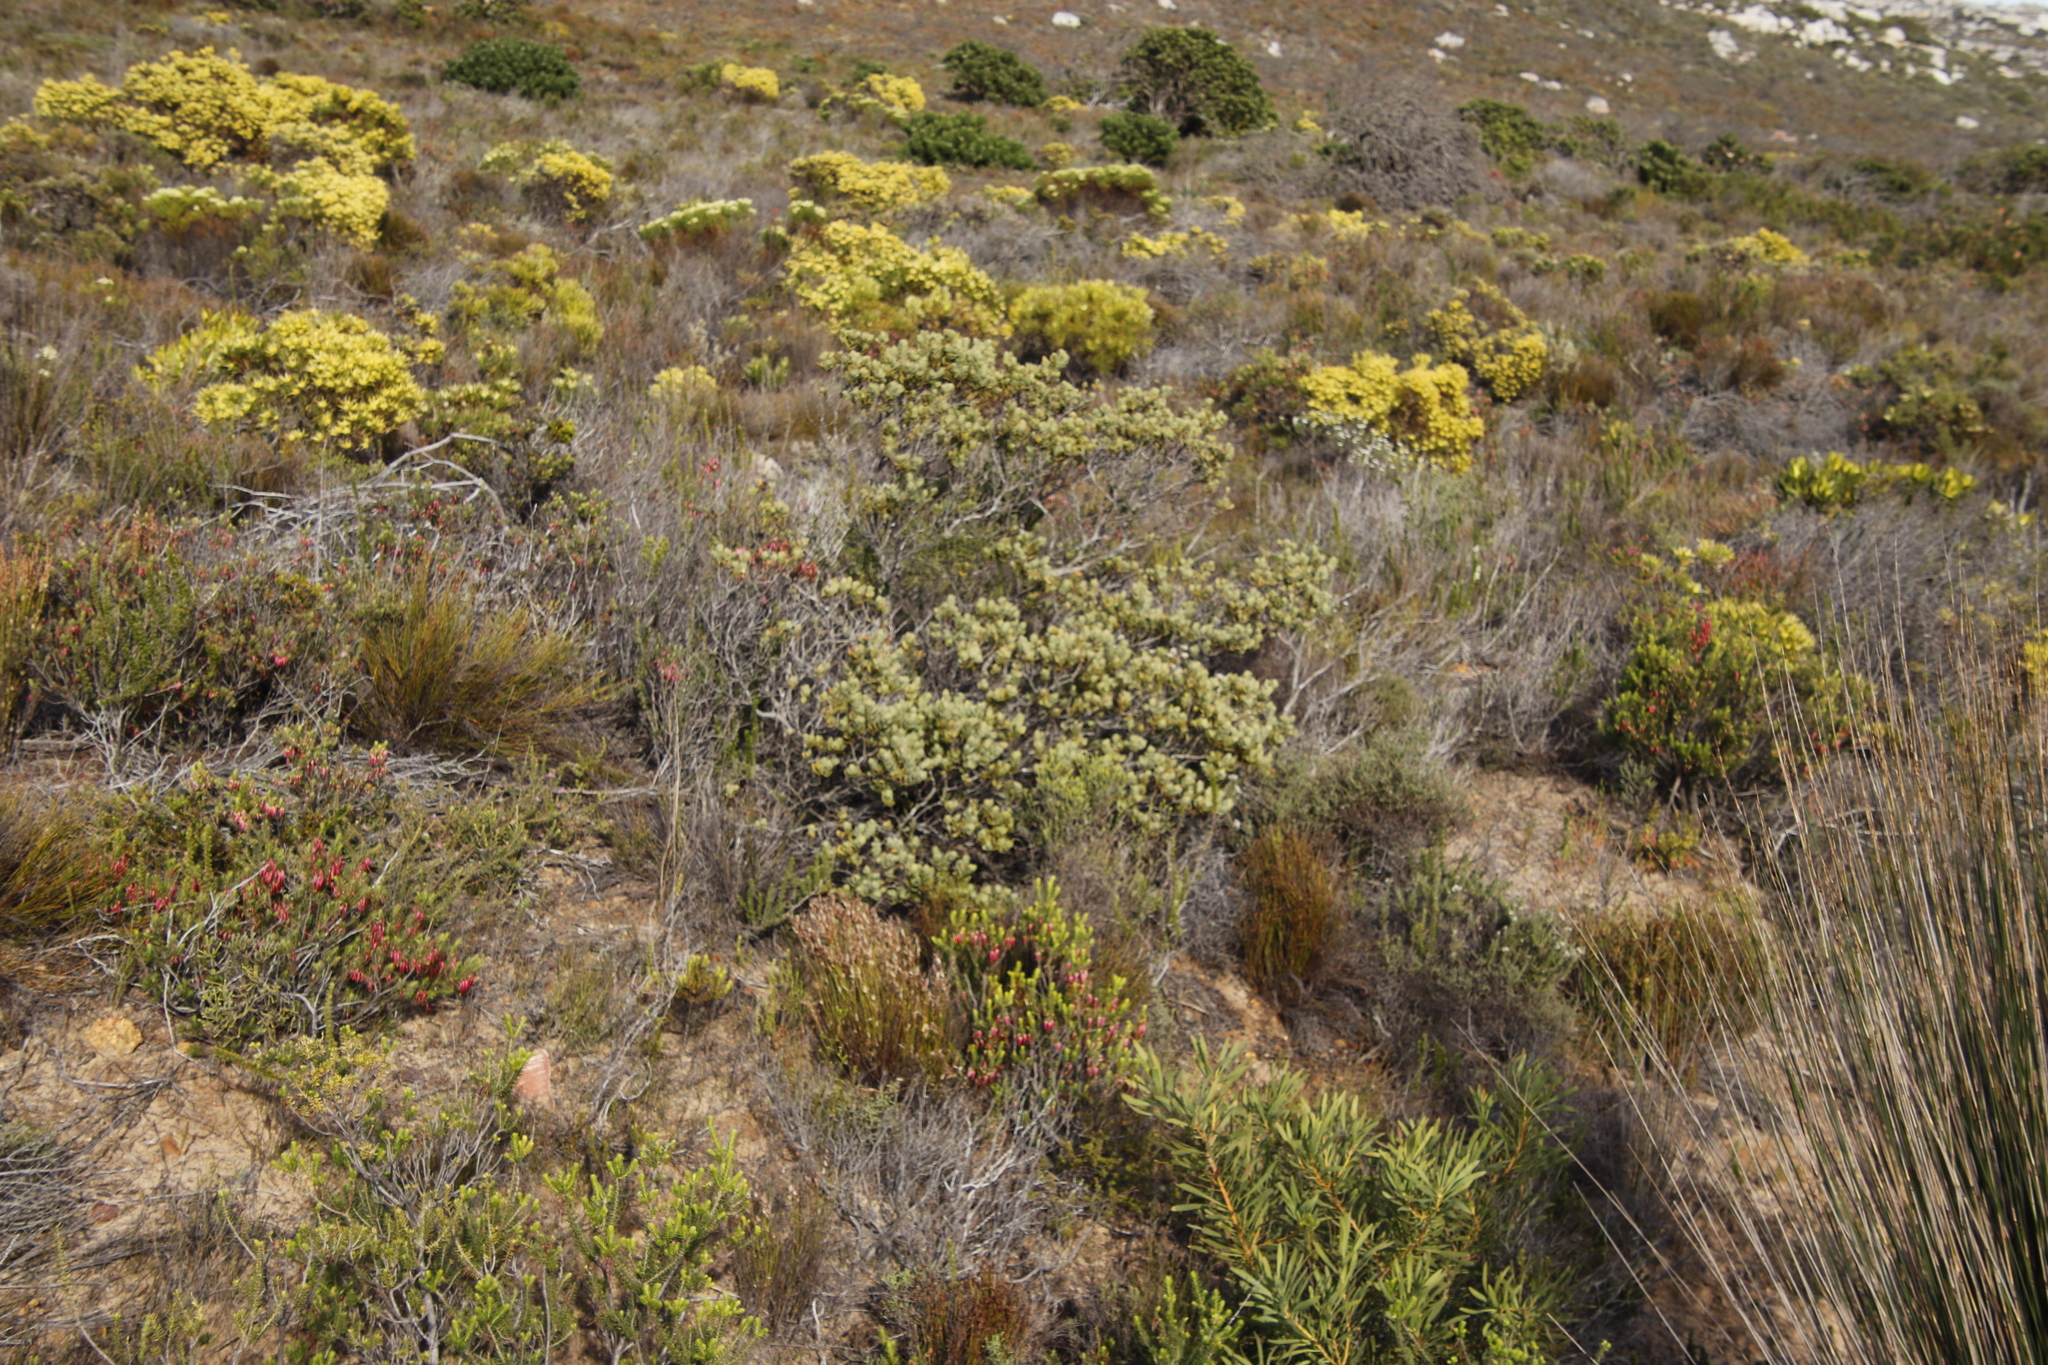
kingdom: Plantae
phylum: Tracheophyta
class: Magnoliopsida
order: Santalales
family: Santalaceae
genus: Osyris
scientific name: Osyris compressa
